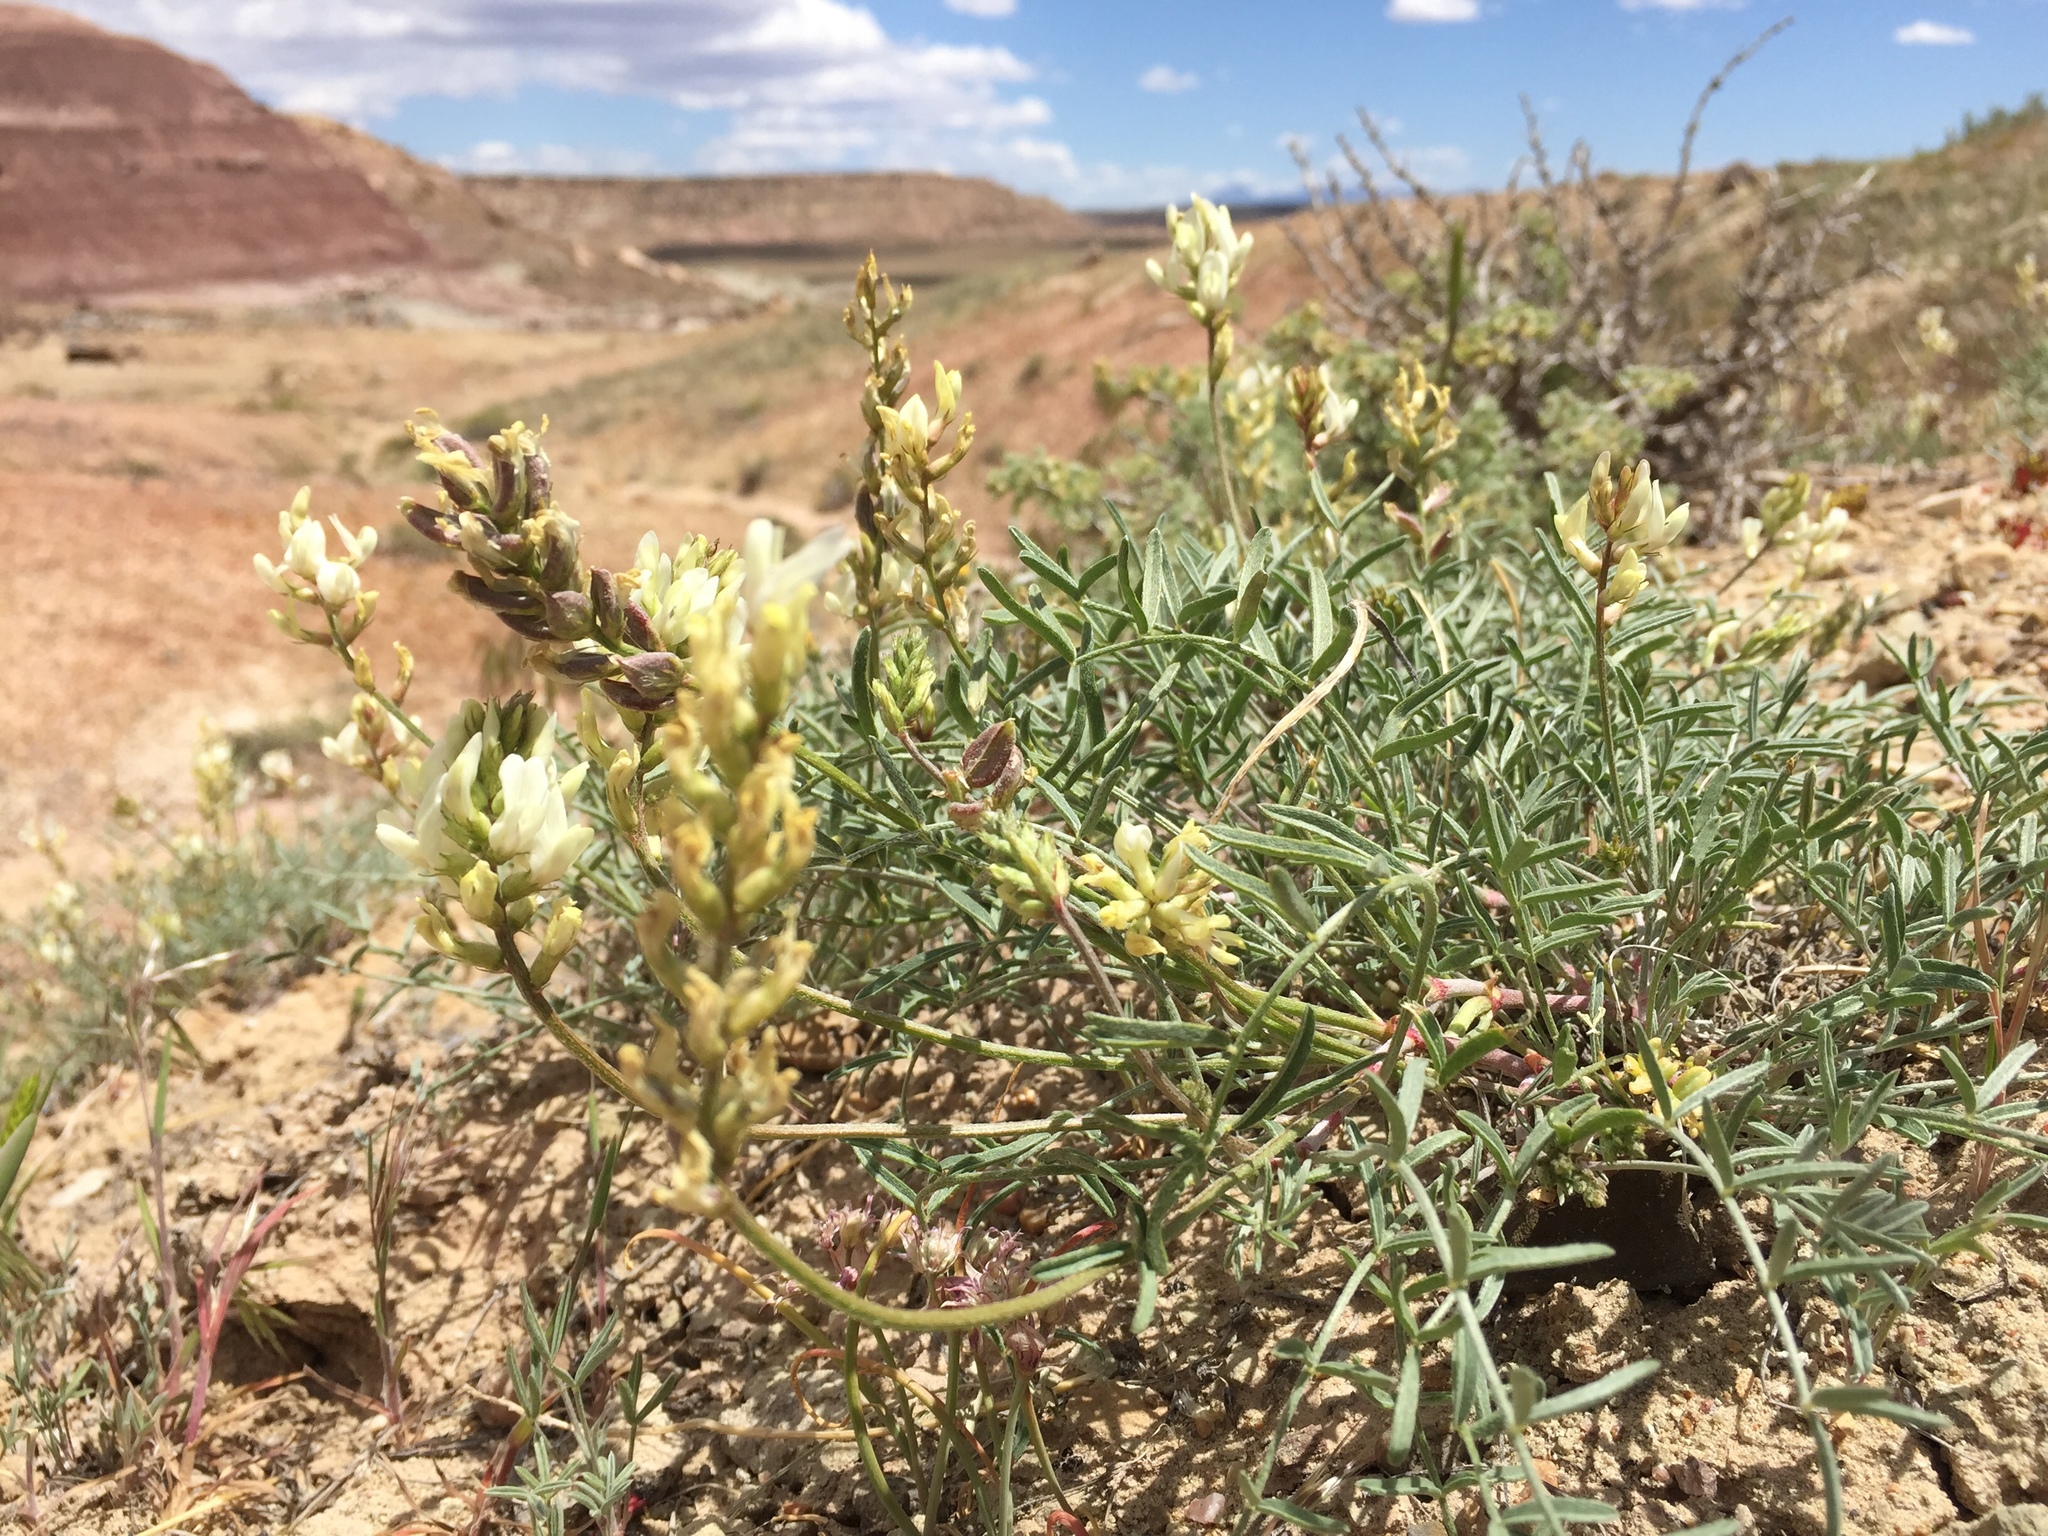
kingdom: Plantae
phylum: Tracheophyta
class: Magnoliopsida
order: Fabales
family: Fabaceae
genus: Astragalus
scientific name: Astragalus flavus
